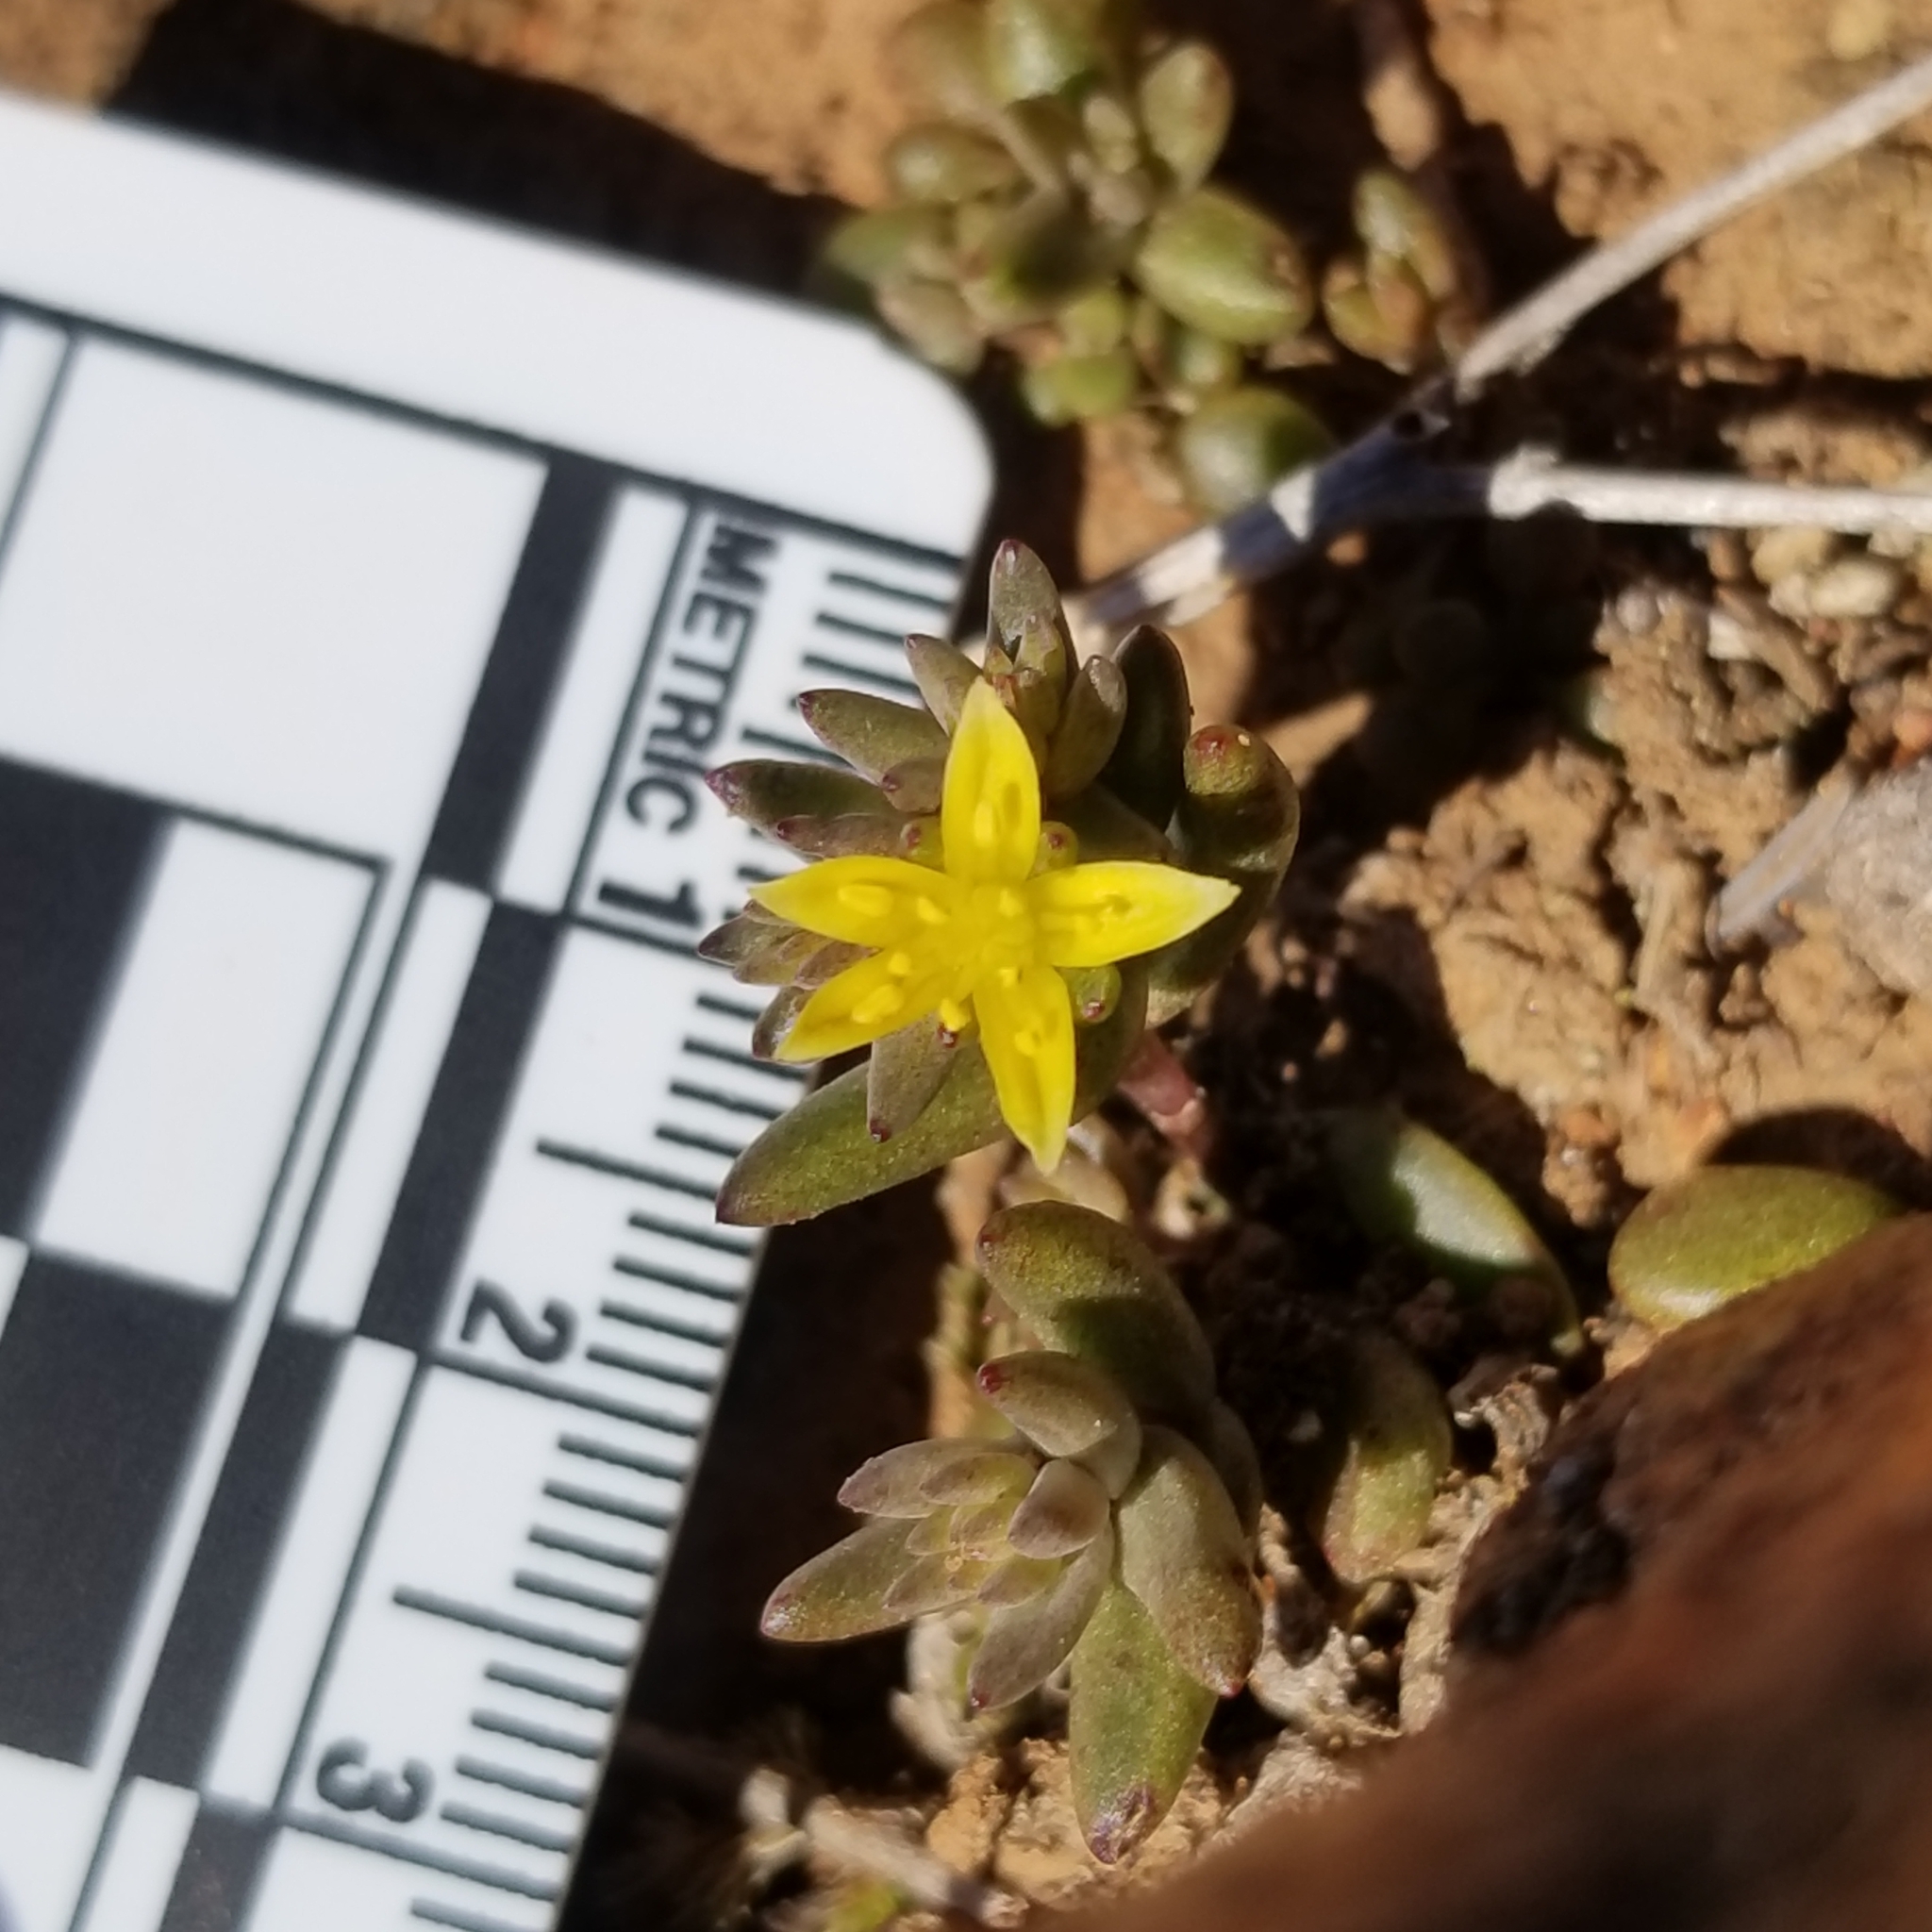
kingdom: Plantae
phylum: Tracheophyta
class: Magnoliopsida
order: Saxifragales
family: Crassulaceae
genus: Dudleya
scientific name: Dudleya variegata
